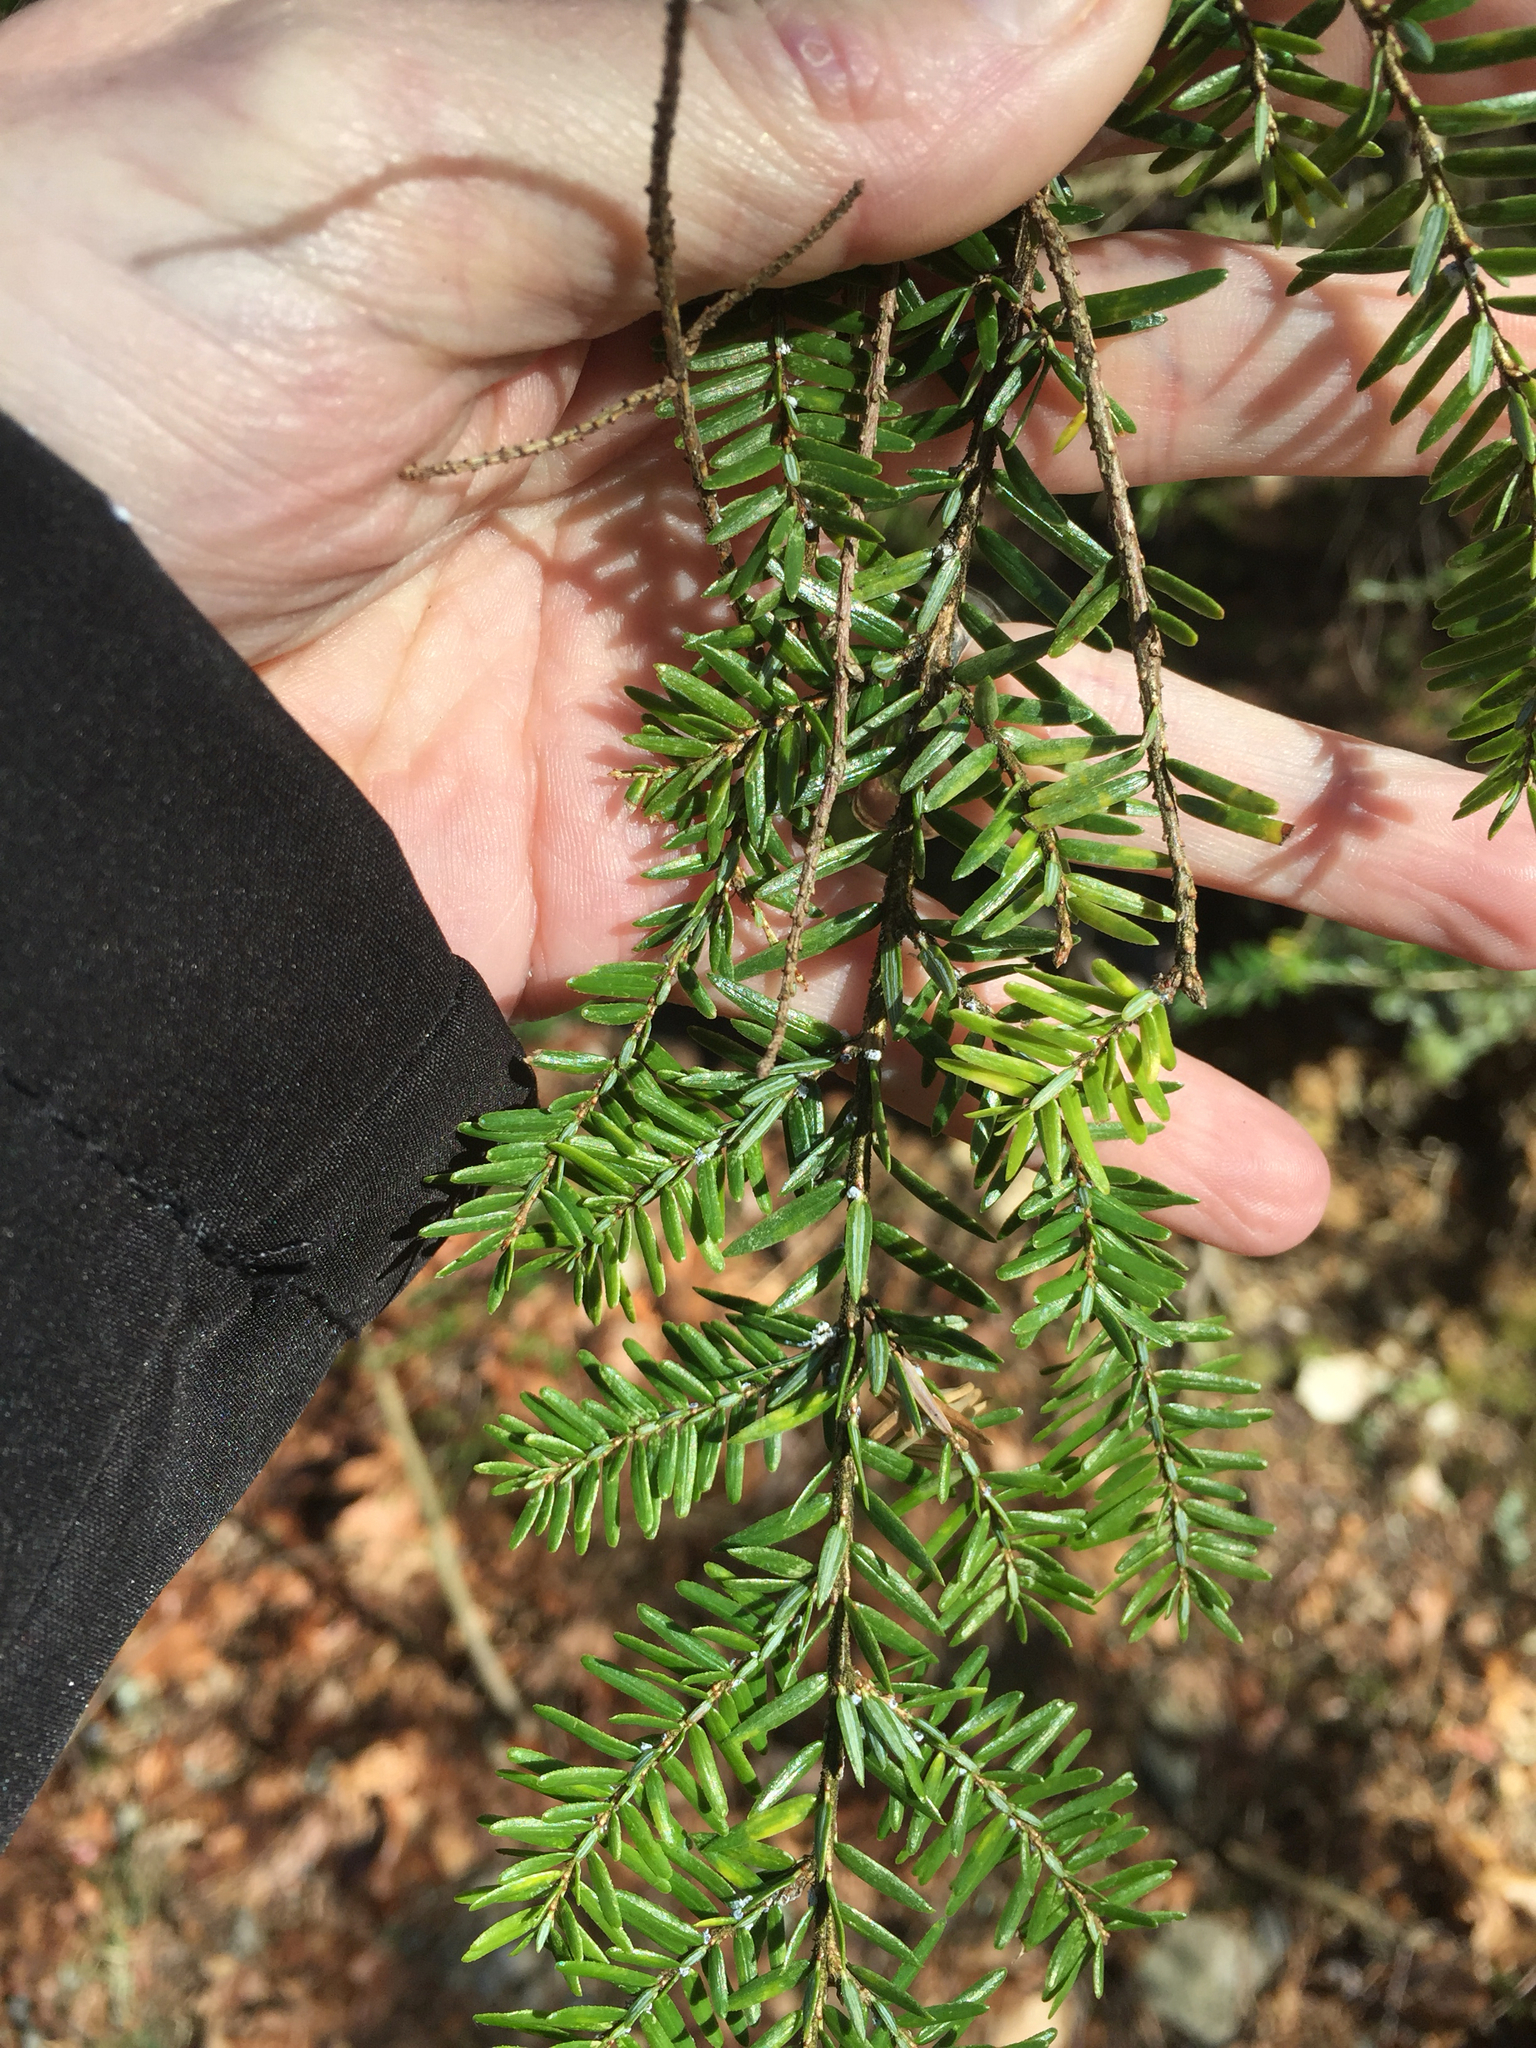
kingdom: Plantae
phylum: Tracheophyta
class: Pinopsida
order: Pinales
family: Pinaceae
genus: Tsuga
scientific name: Tsuga canadensis
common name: Eastern hemlock
